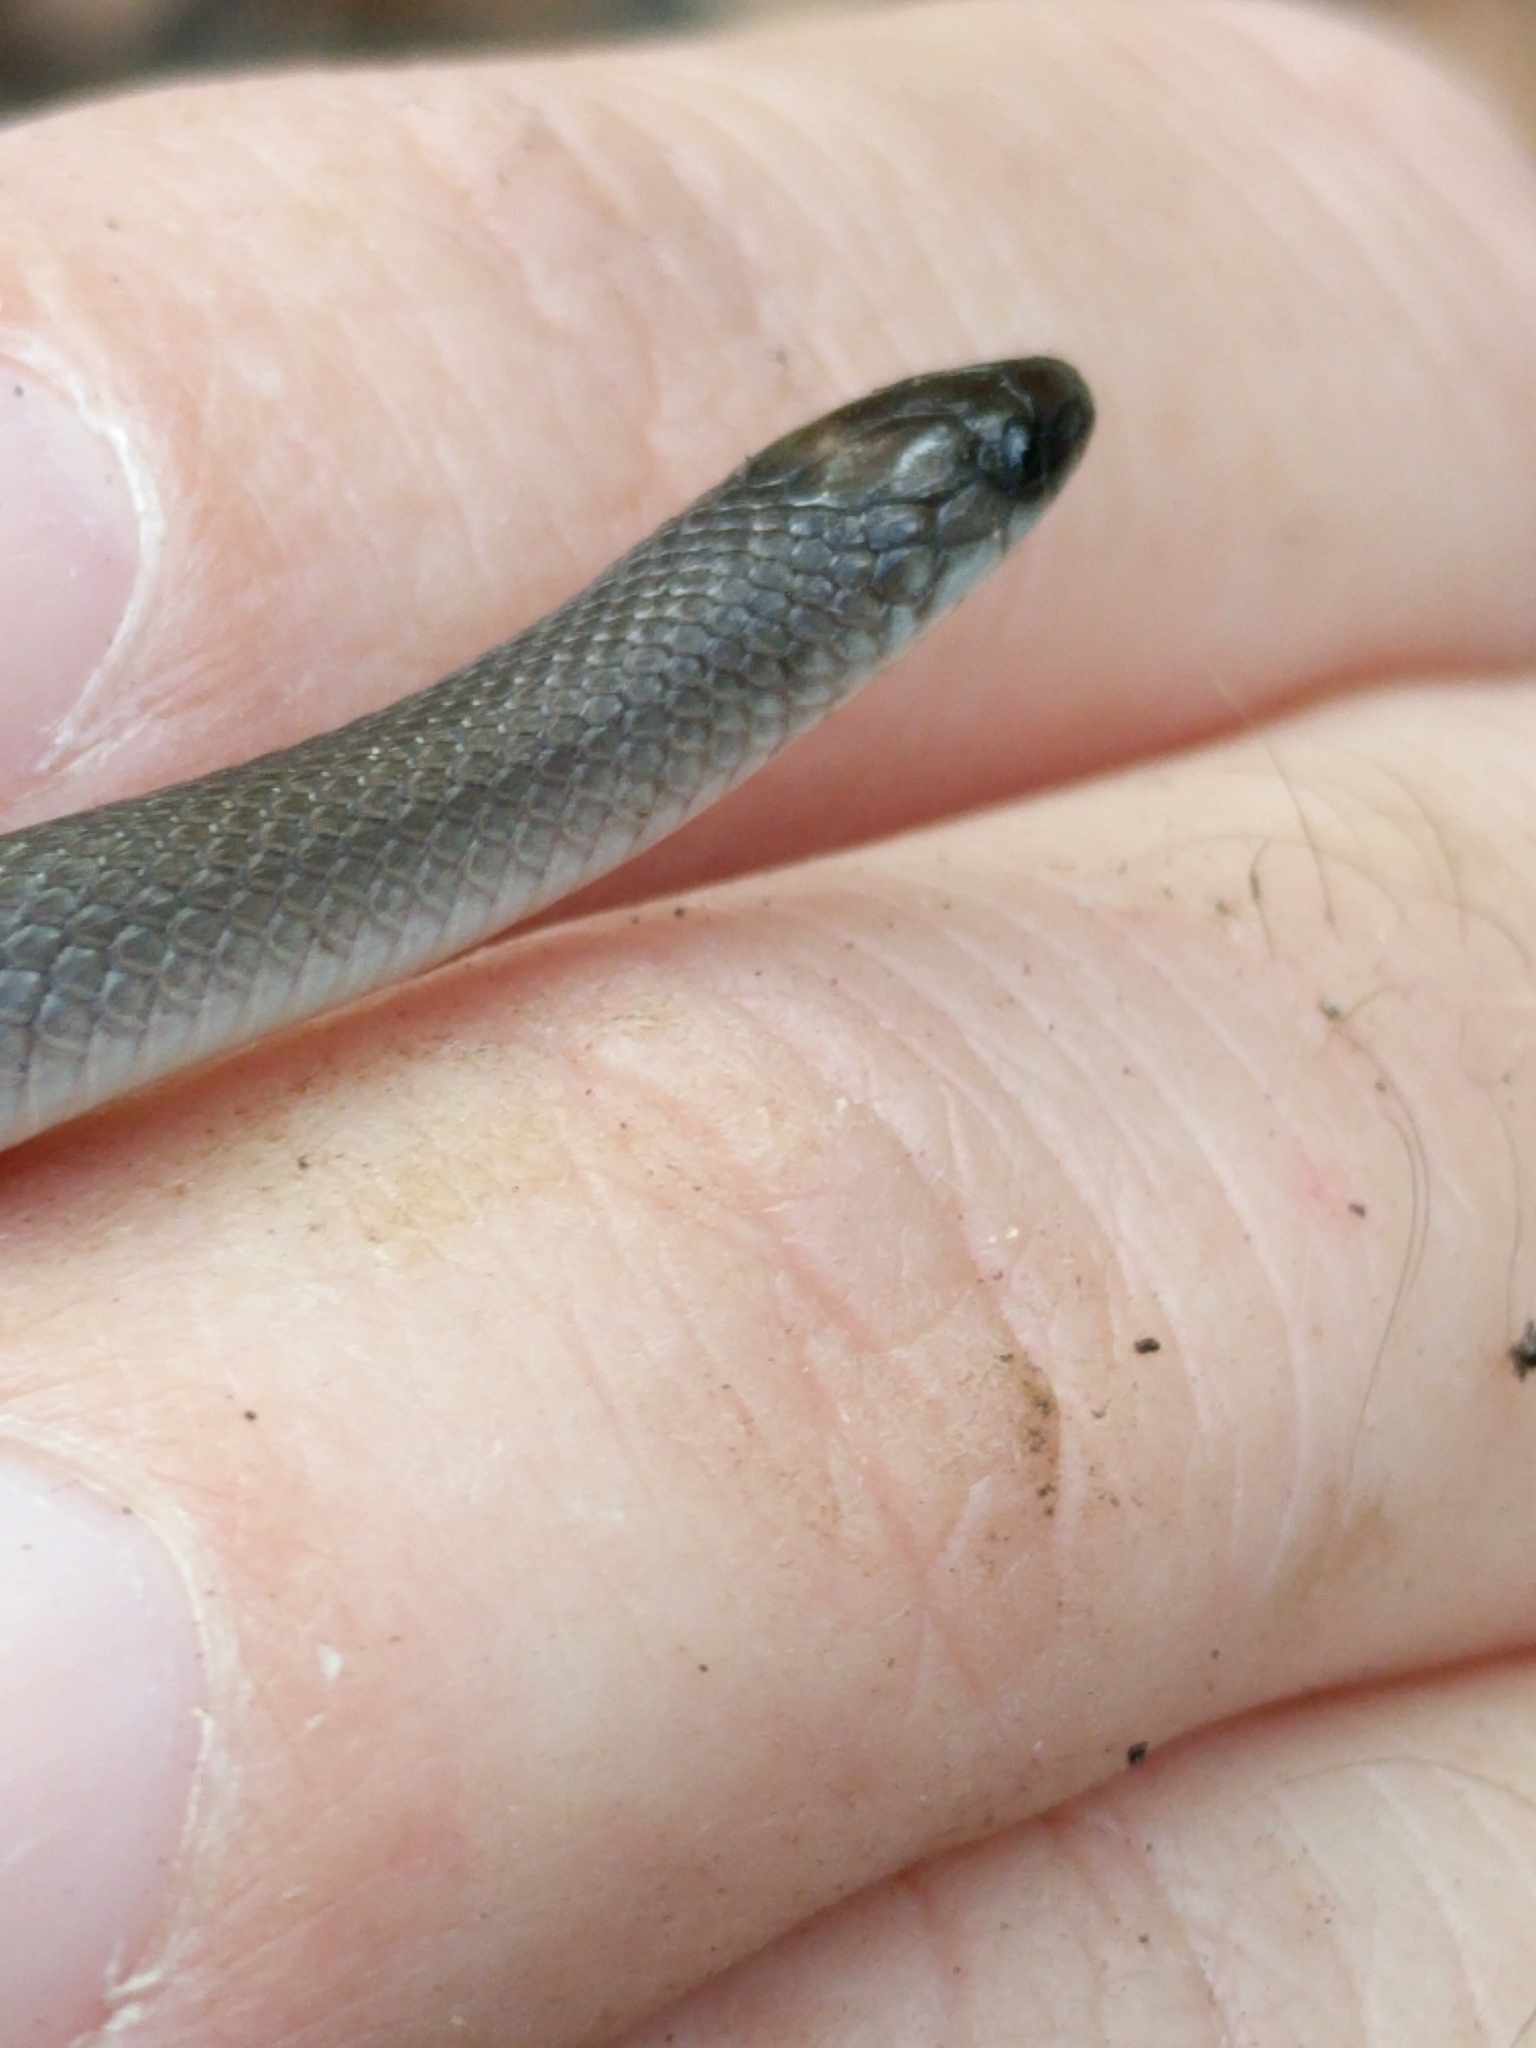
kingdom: Animalia
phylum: Chordata
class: Squamata
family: Colubridae
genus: Haldea
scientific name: Haldea striatula
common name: Rough earth snake
